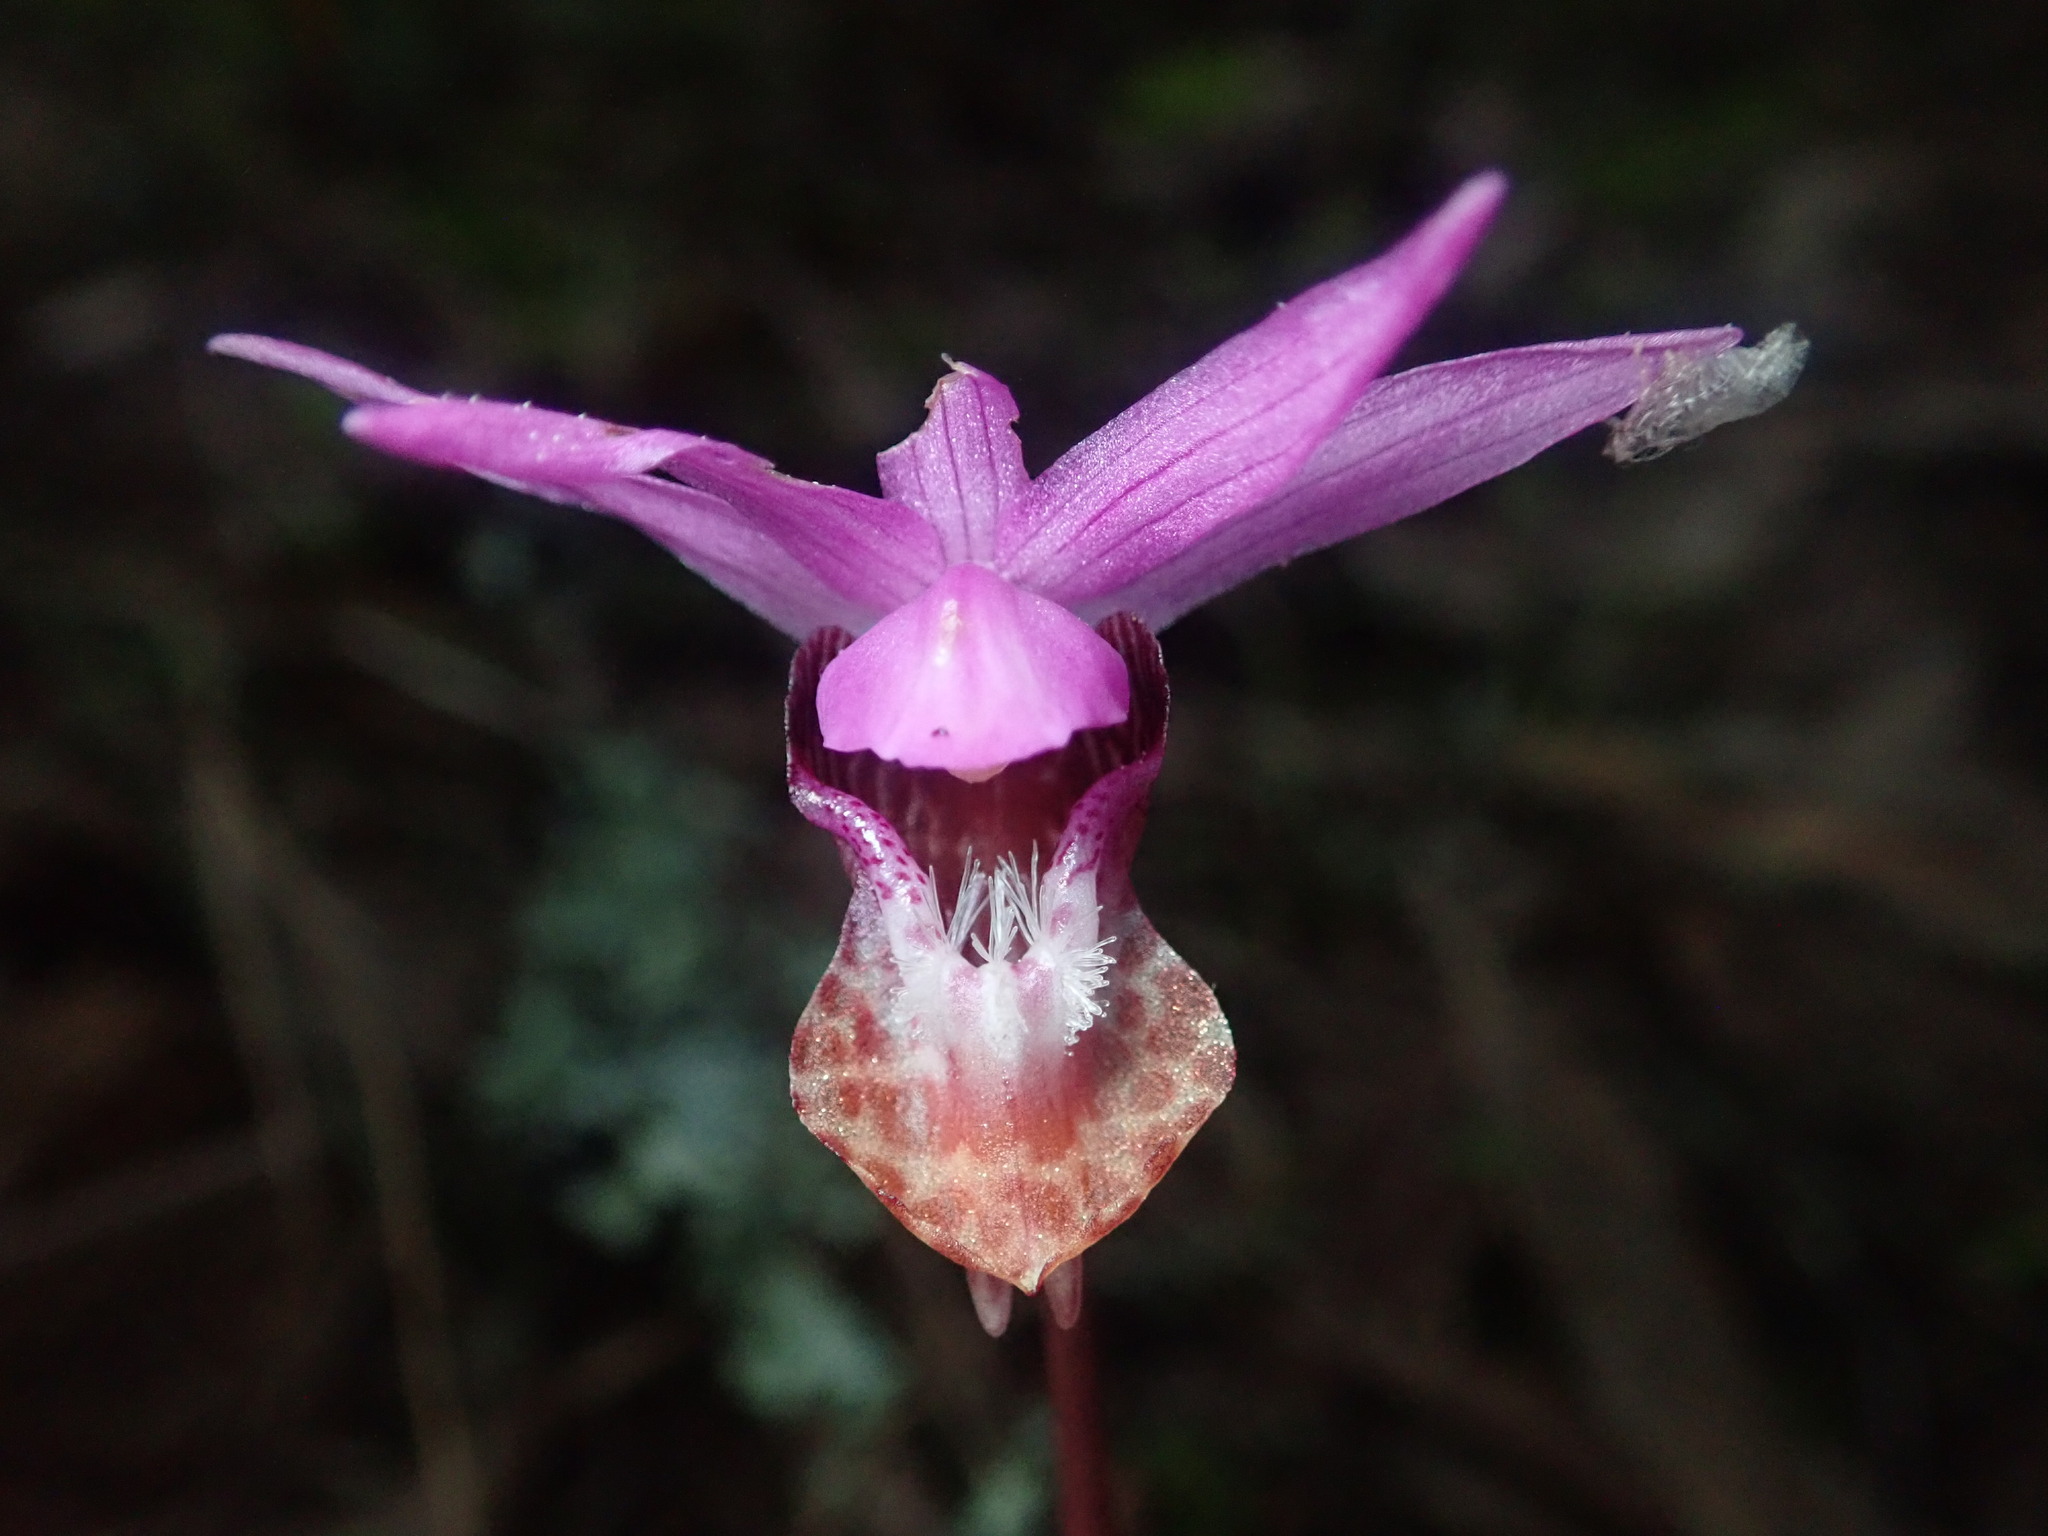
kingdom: Plantae
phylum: Tracheophyta
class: Liliopsida
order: Asparagales
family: Orchidaceae
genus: Calypso
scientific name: Calypso bulbosa
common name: Calypso
